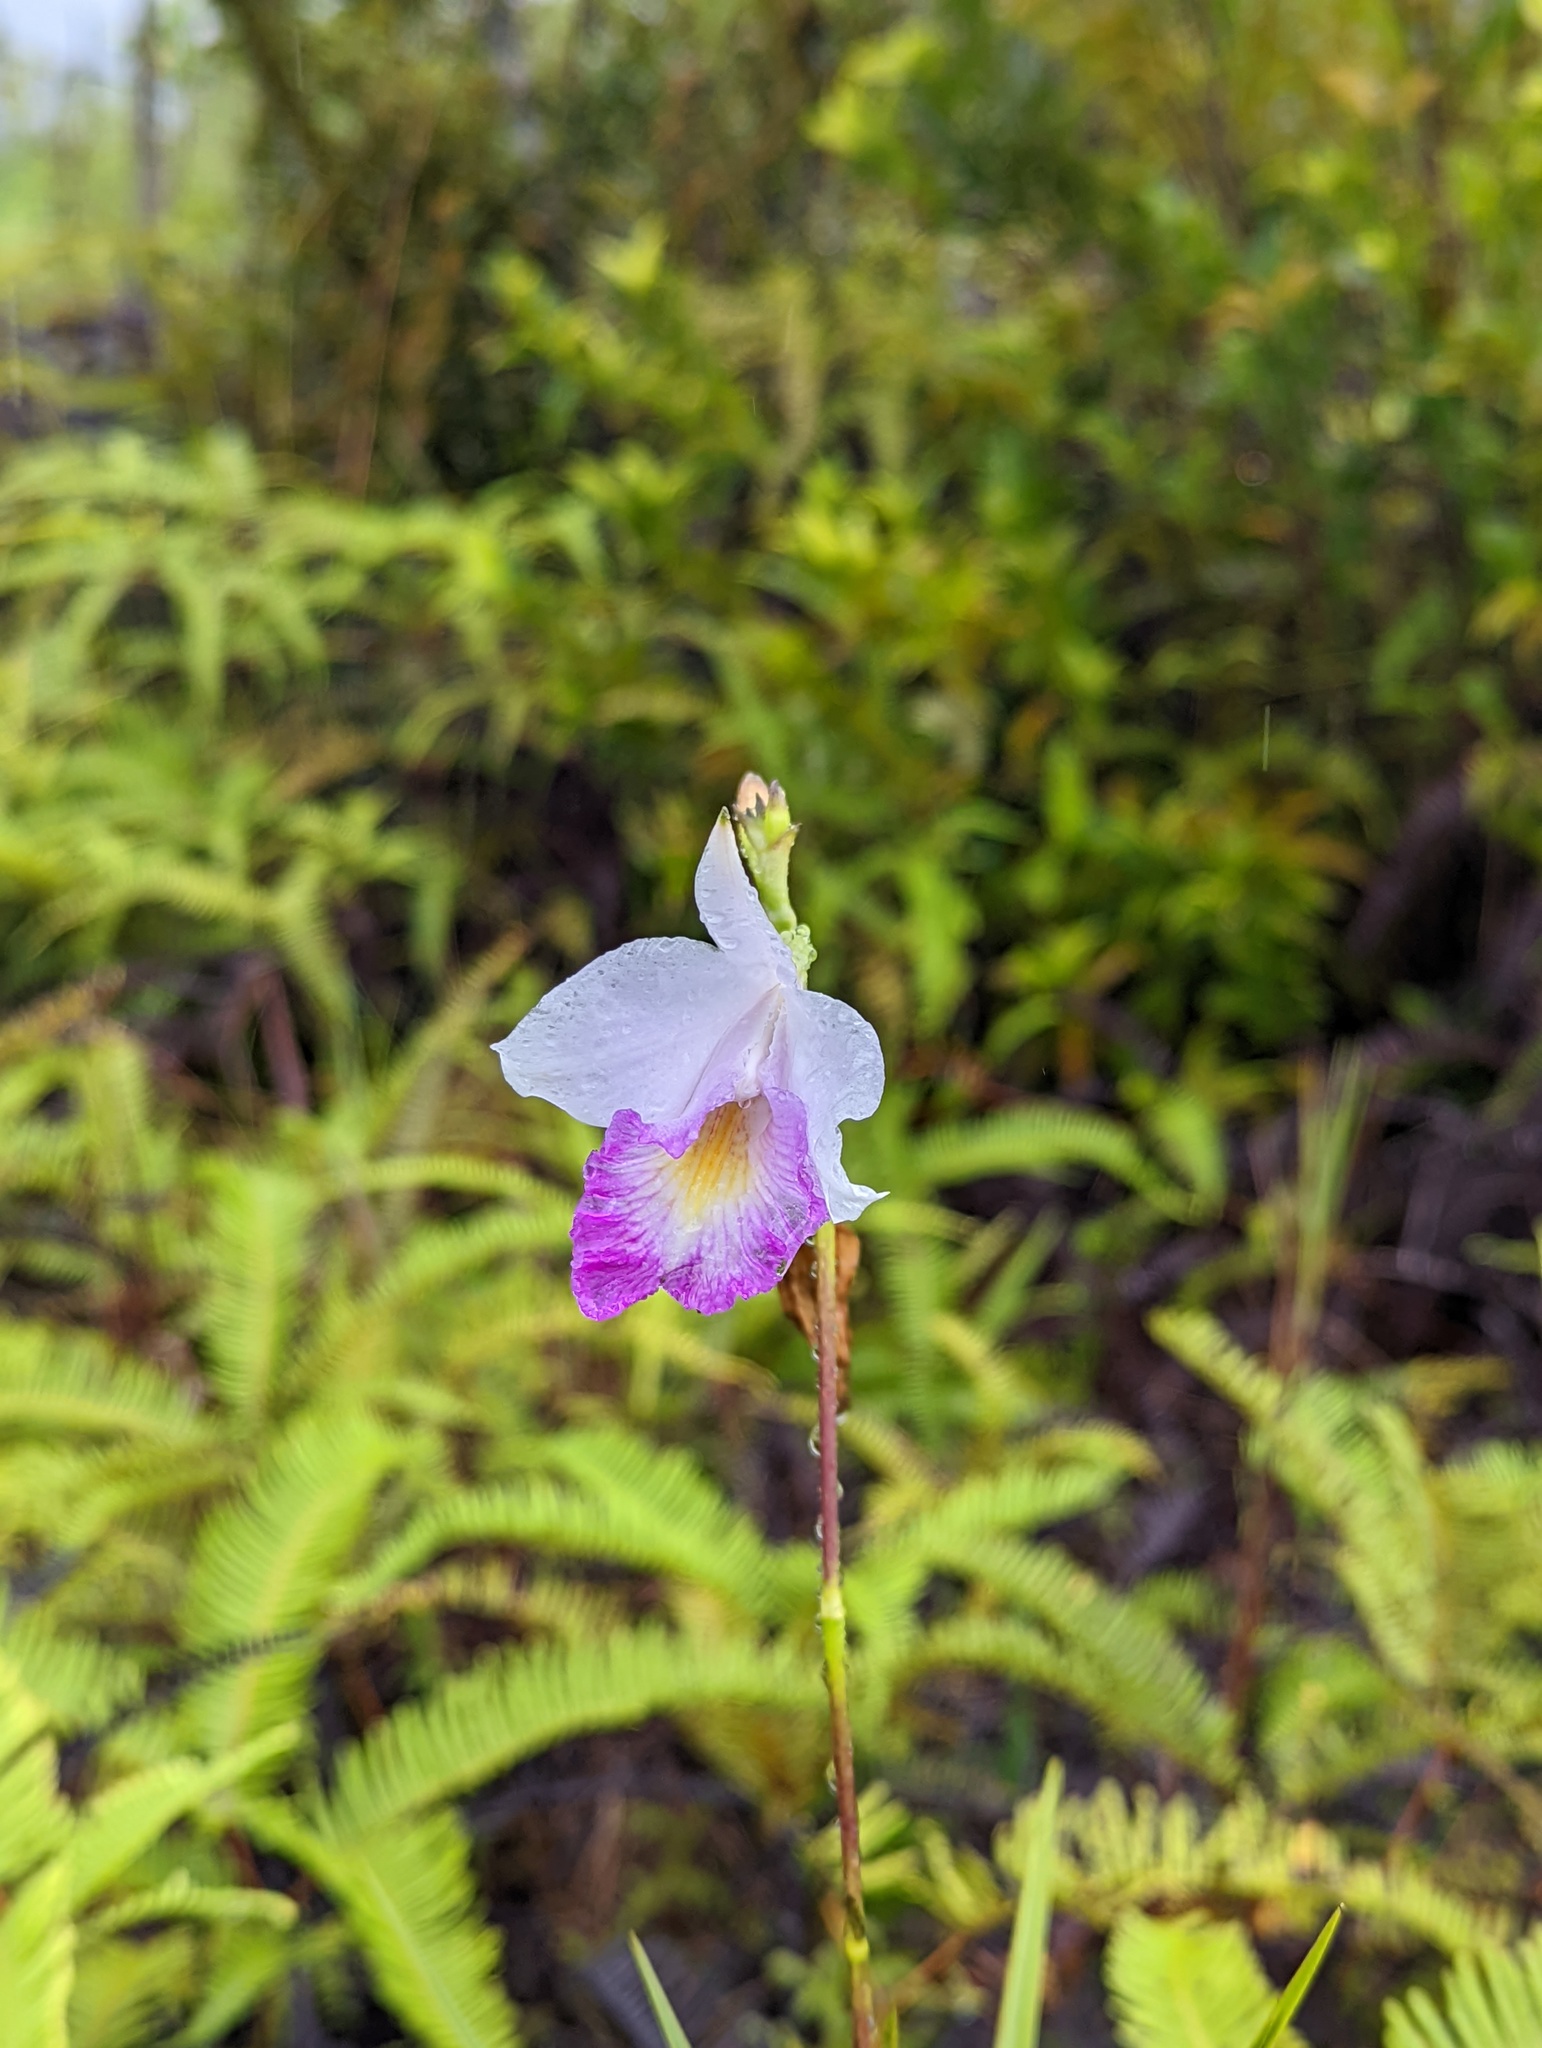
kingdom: Plantae
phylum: Tracheophyta
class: Liliopsida
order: Asparagales
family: Orchidaceae
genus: Arundina
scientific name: Arundina graminifolia
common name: Bamboo orchid
